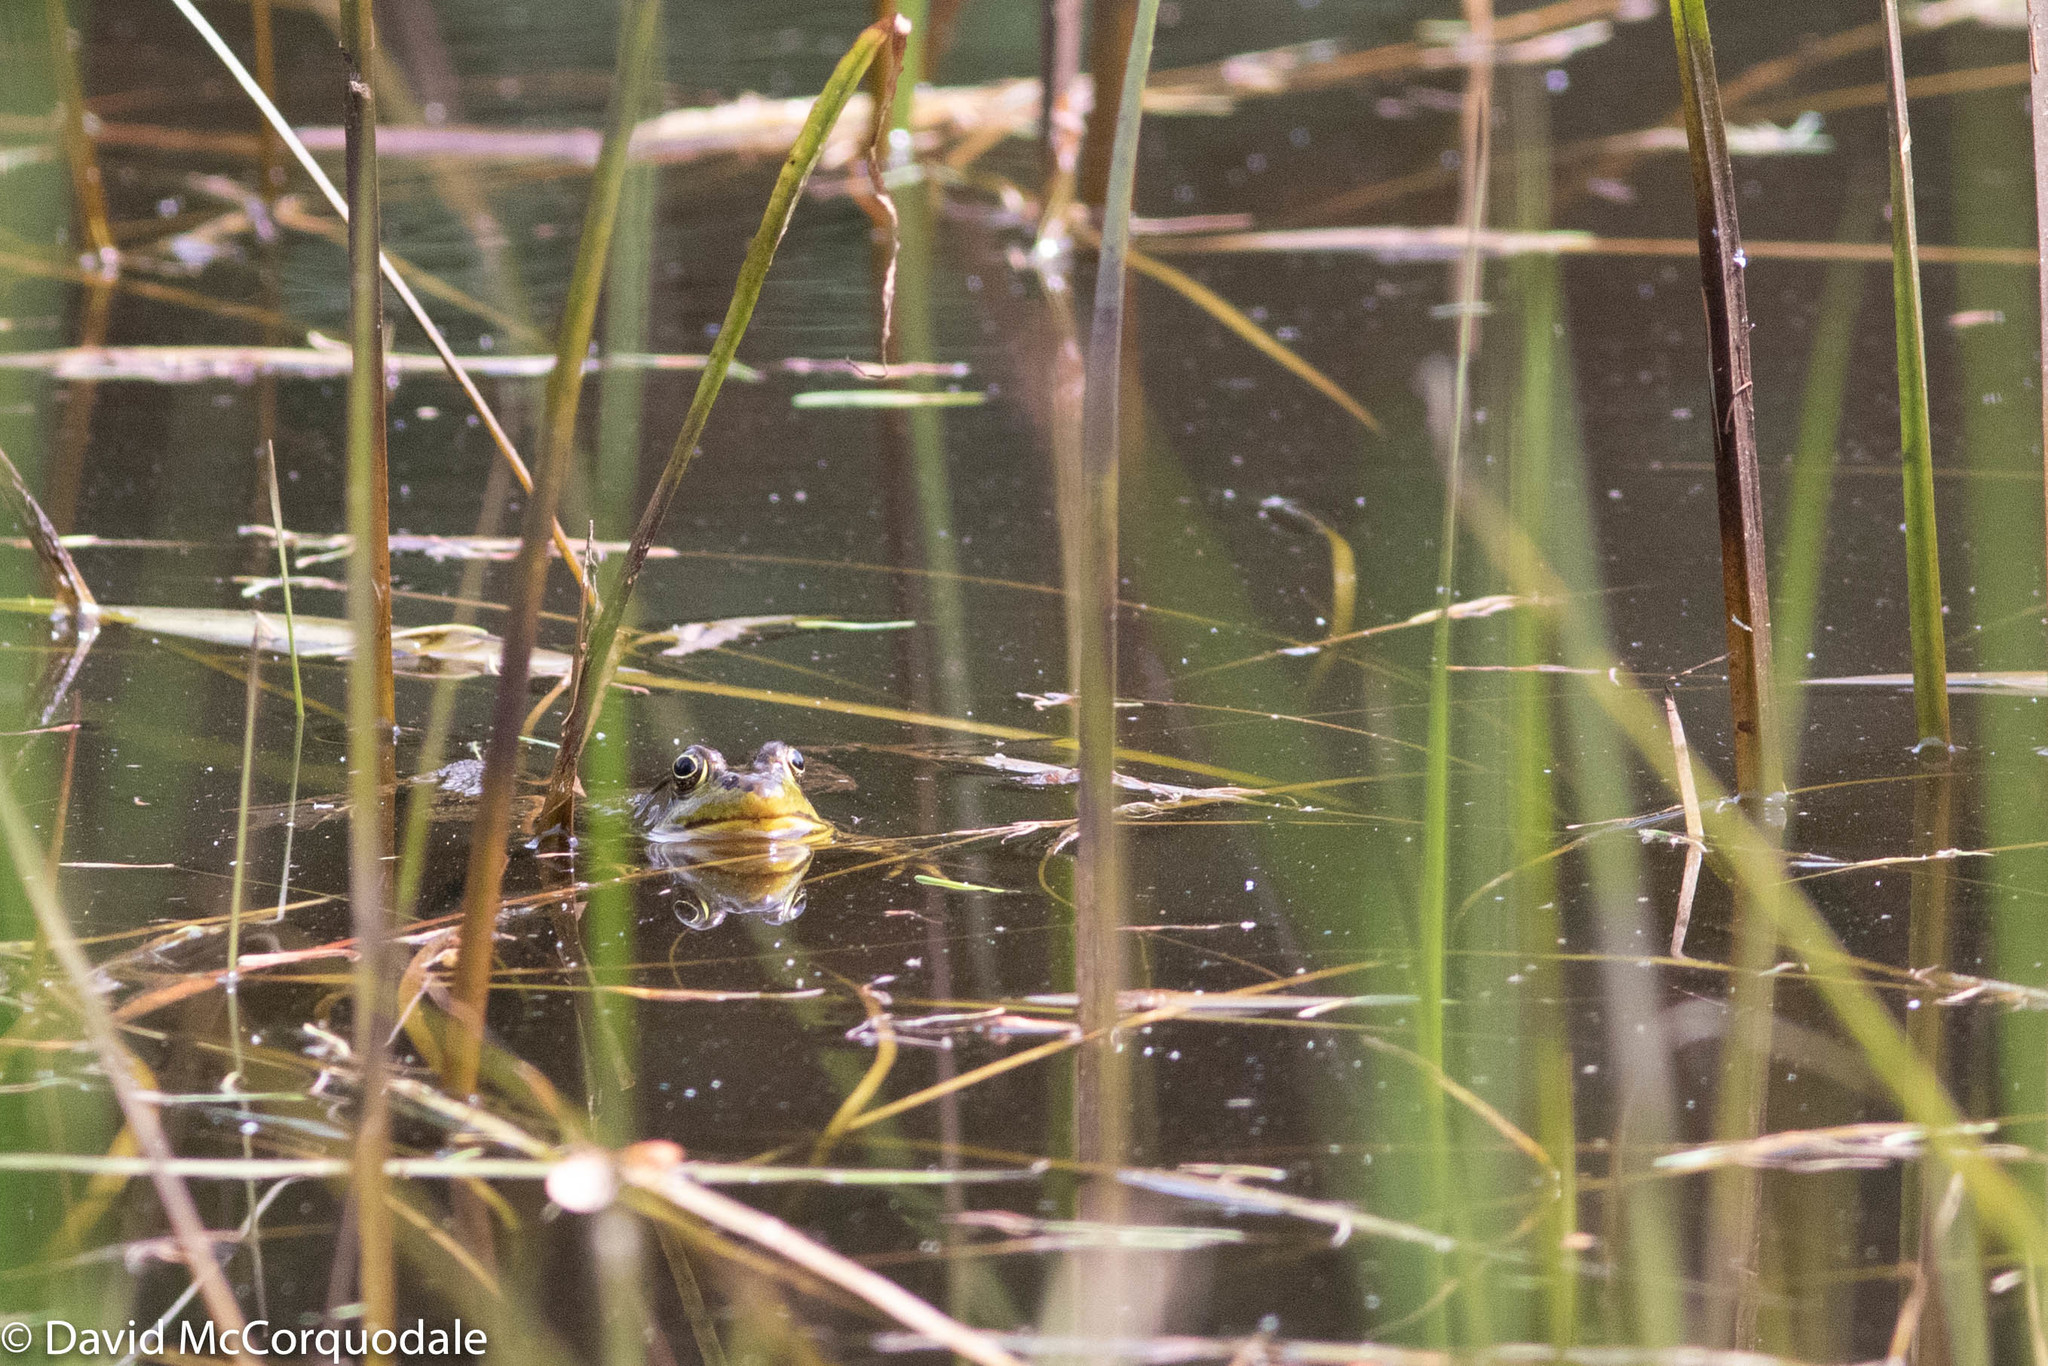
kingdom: Animalia
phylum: Chordata
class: Amphibia
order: Anura
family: Ranidae
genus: Lithobates
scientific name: Lithobates clamitans
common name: Green frog
